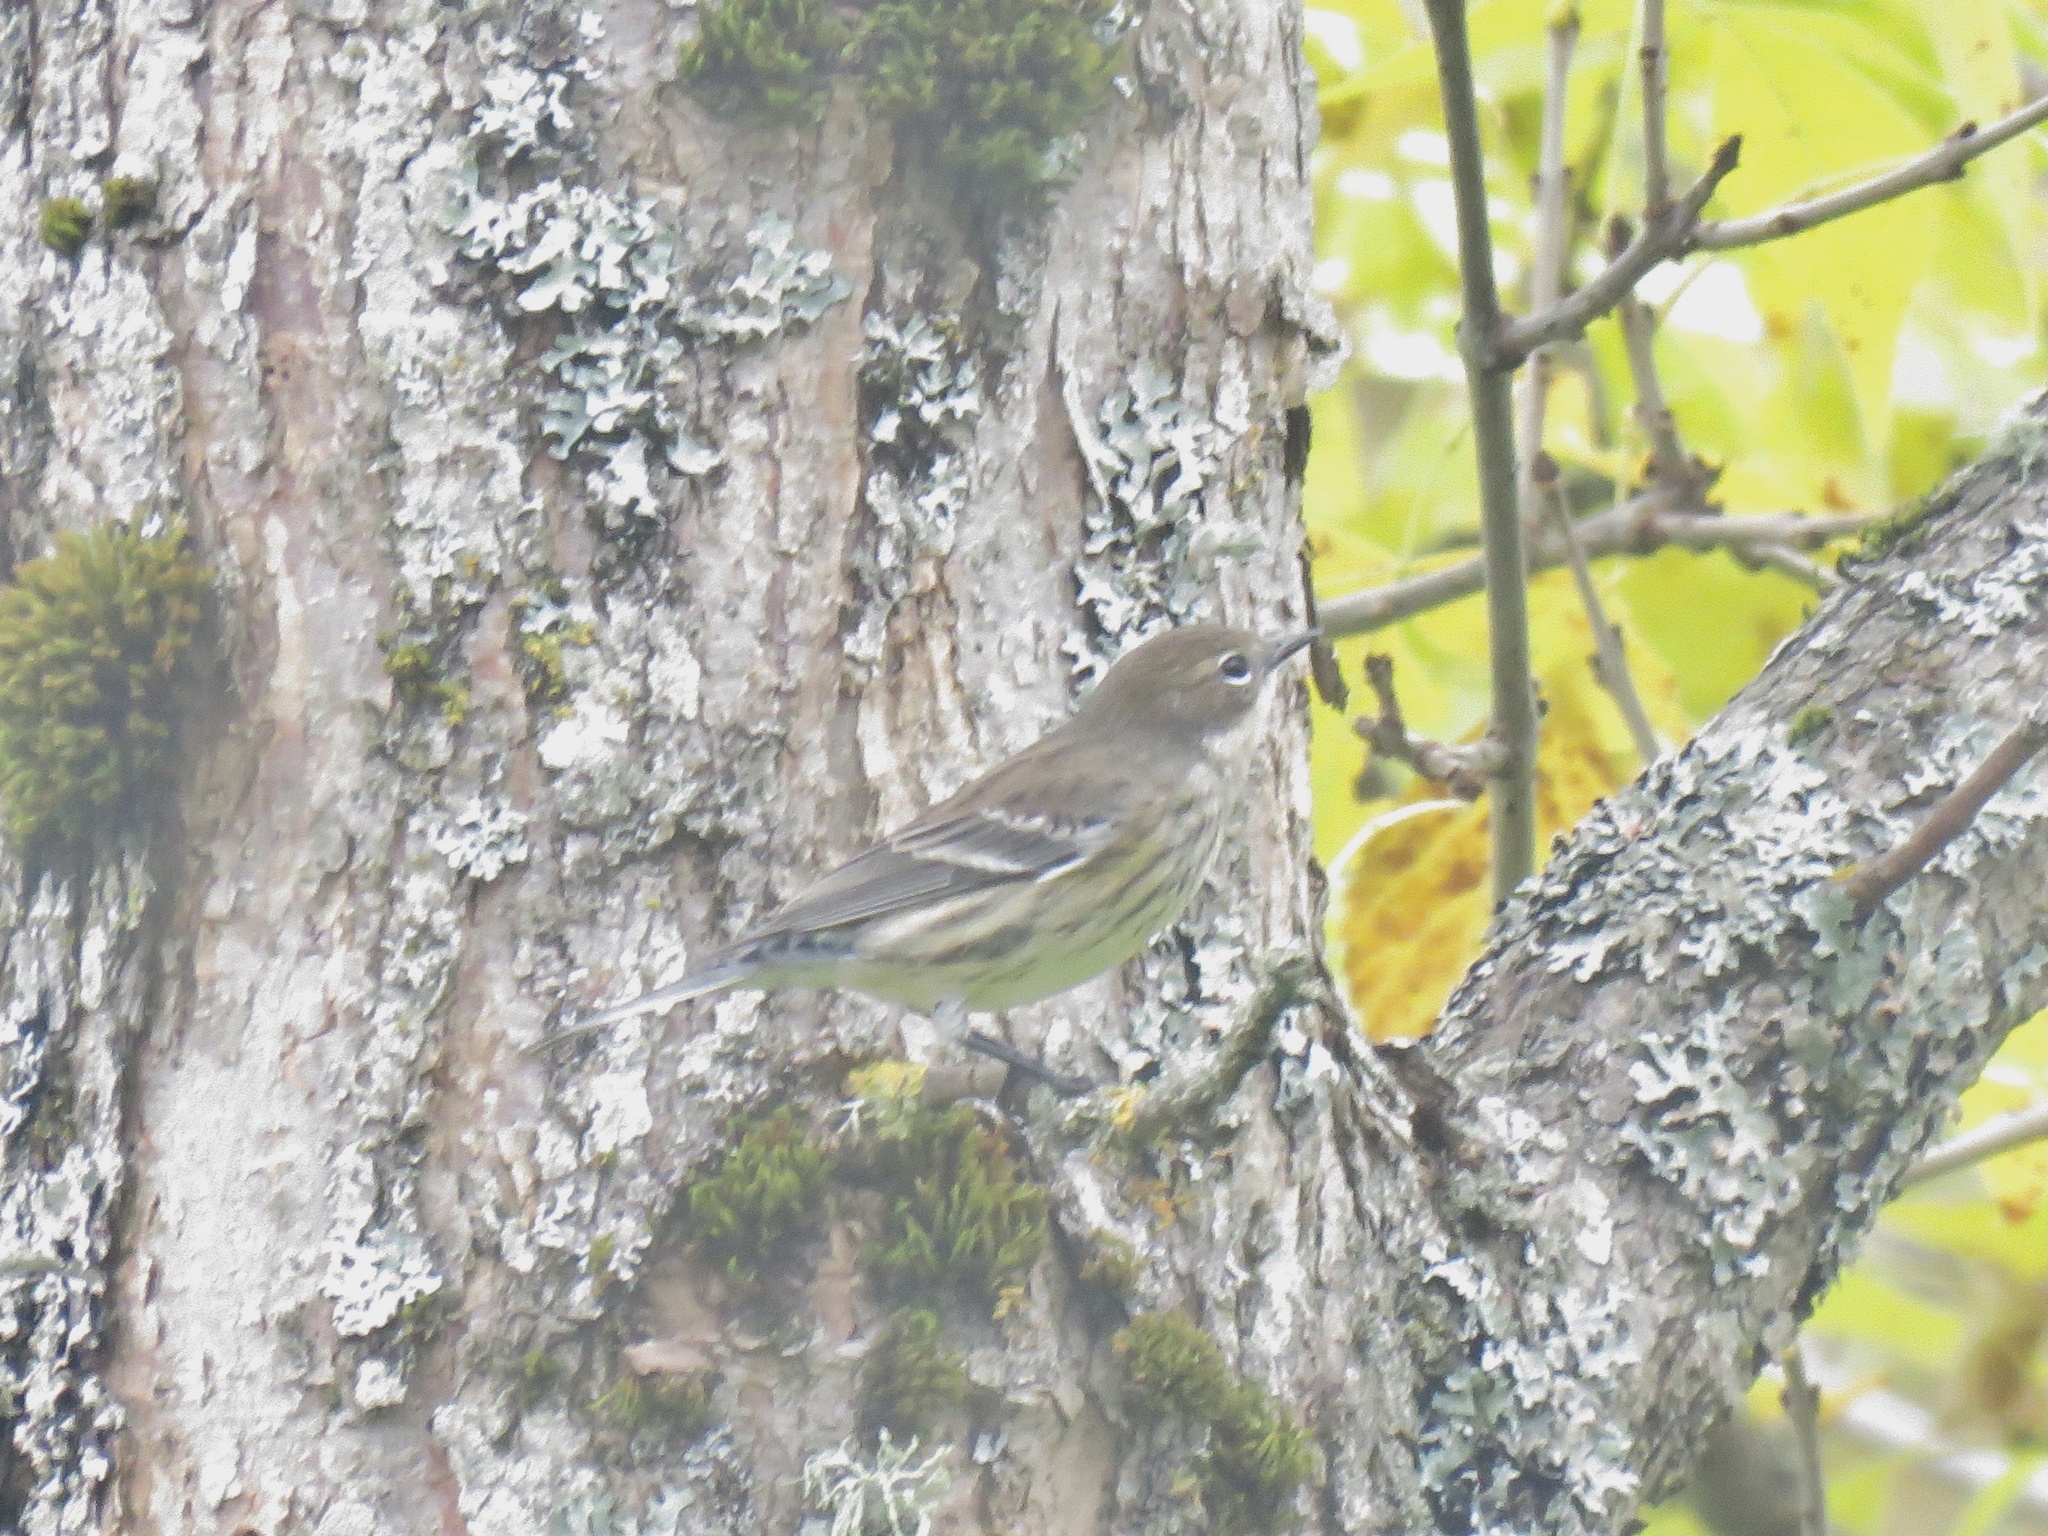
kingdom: Animalia
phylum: Chordata
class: Aves
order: Passeriformes
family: Parulidae
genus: Setophaga
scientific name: Setophaga coronata
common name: Myrtle warbler
